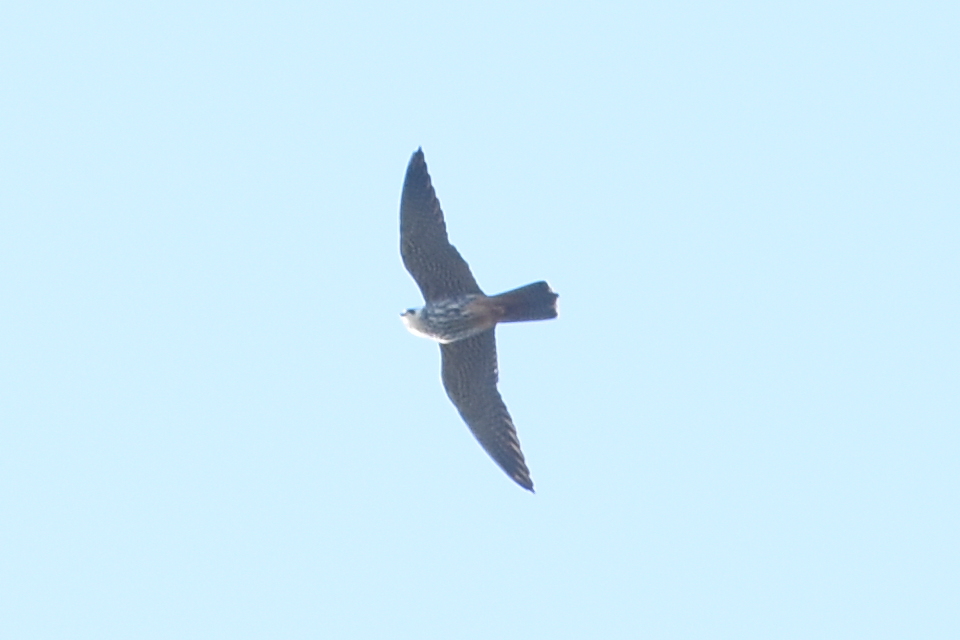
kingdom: Animalia
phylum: Chordata
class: Aves
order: Falconiformes
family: Falconidae
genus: Falco
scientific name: Falco subbuteo
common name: Eurasian hobby
